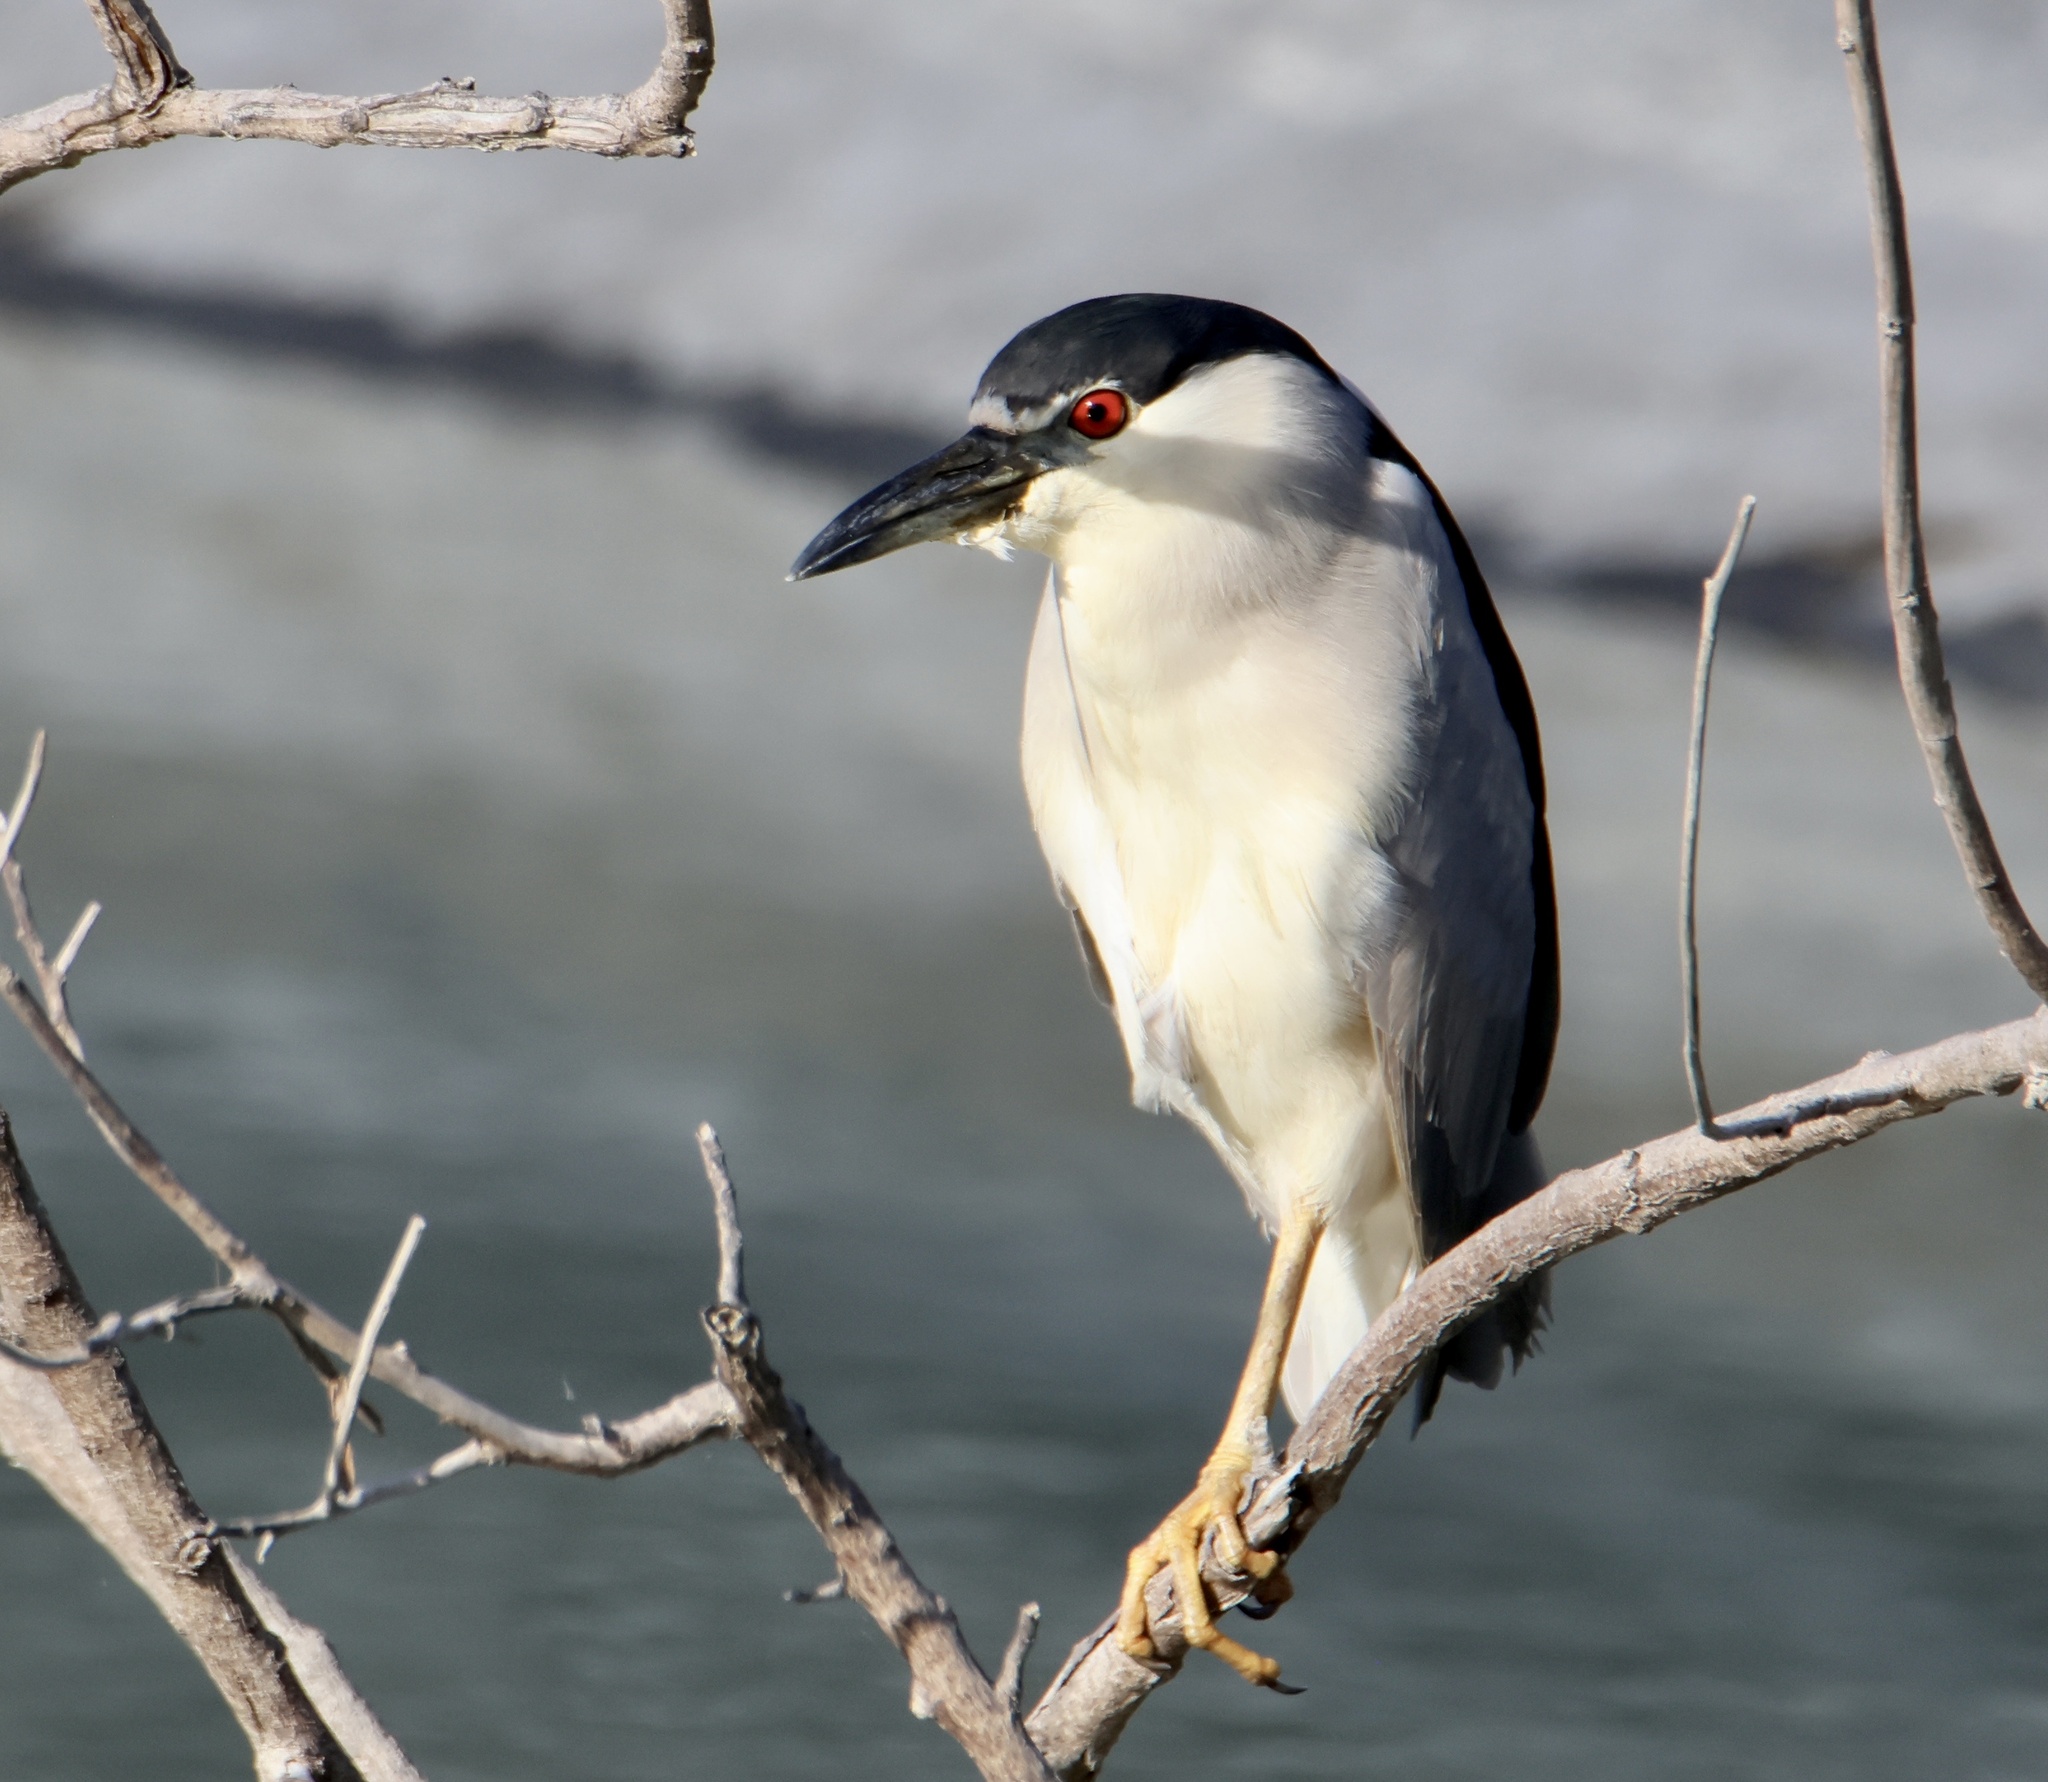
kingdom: Animalia
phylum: Chordata
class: Aves
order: Pelecaniformes
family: Ardeidae
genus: Nycticorax
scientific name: Nycticorax nycticorax
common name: Black-crowned night heron
